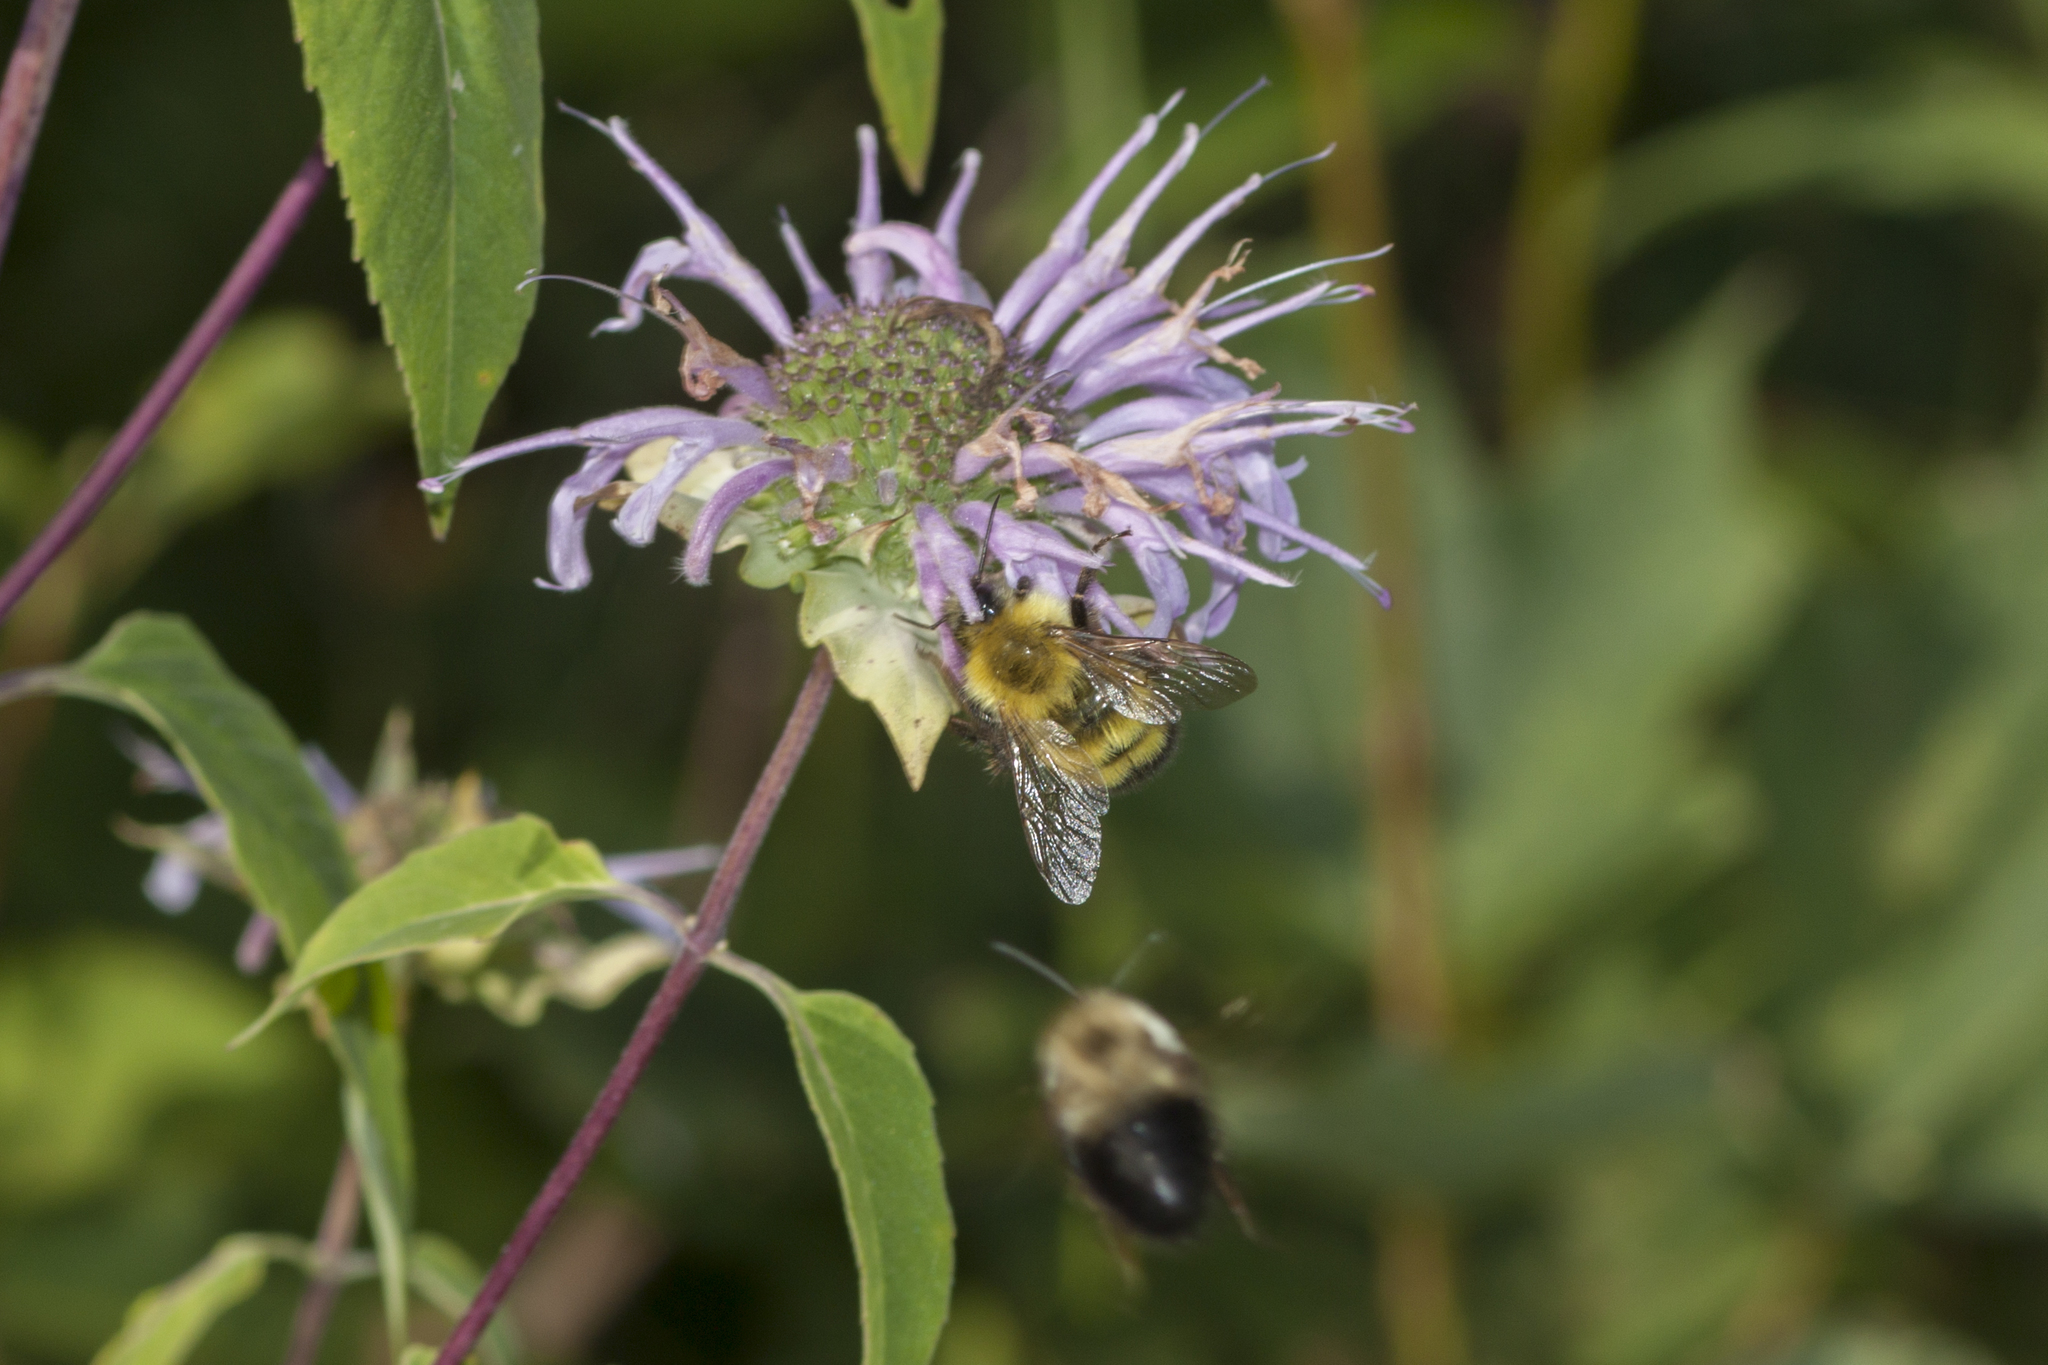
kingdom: Animalia
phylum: Arthropoda
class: Insecta
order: Hymenoptera
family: Apidae
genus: Bombus
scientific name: Bombus perplexus
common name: Confusing bumble bee
